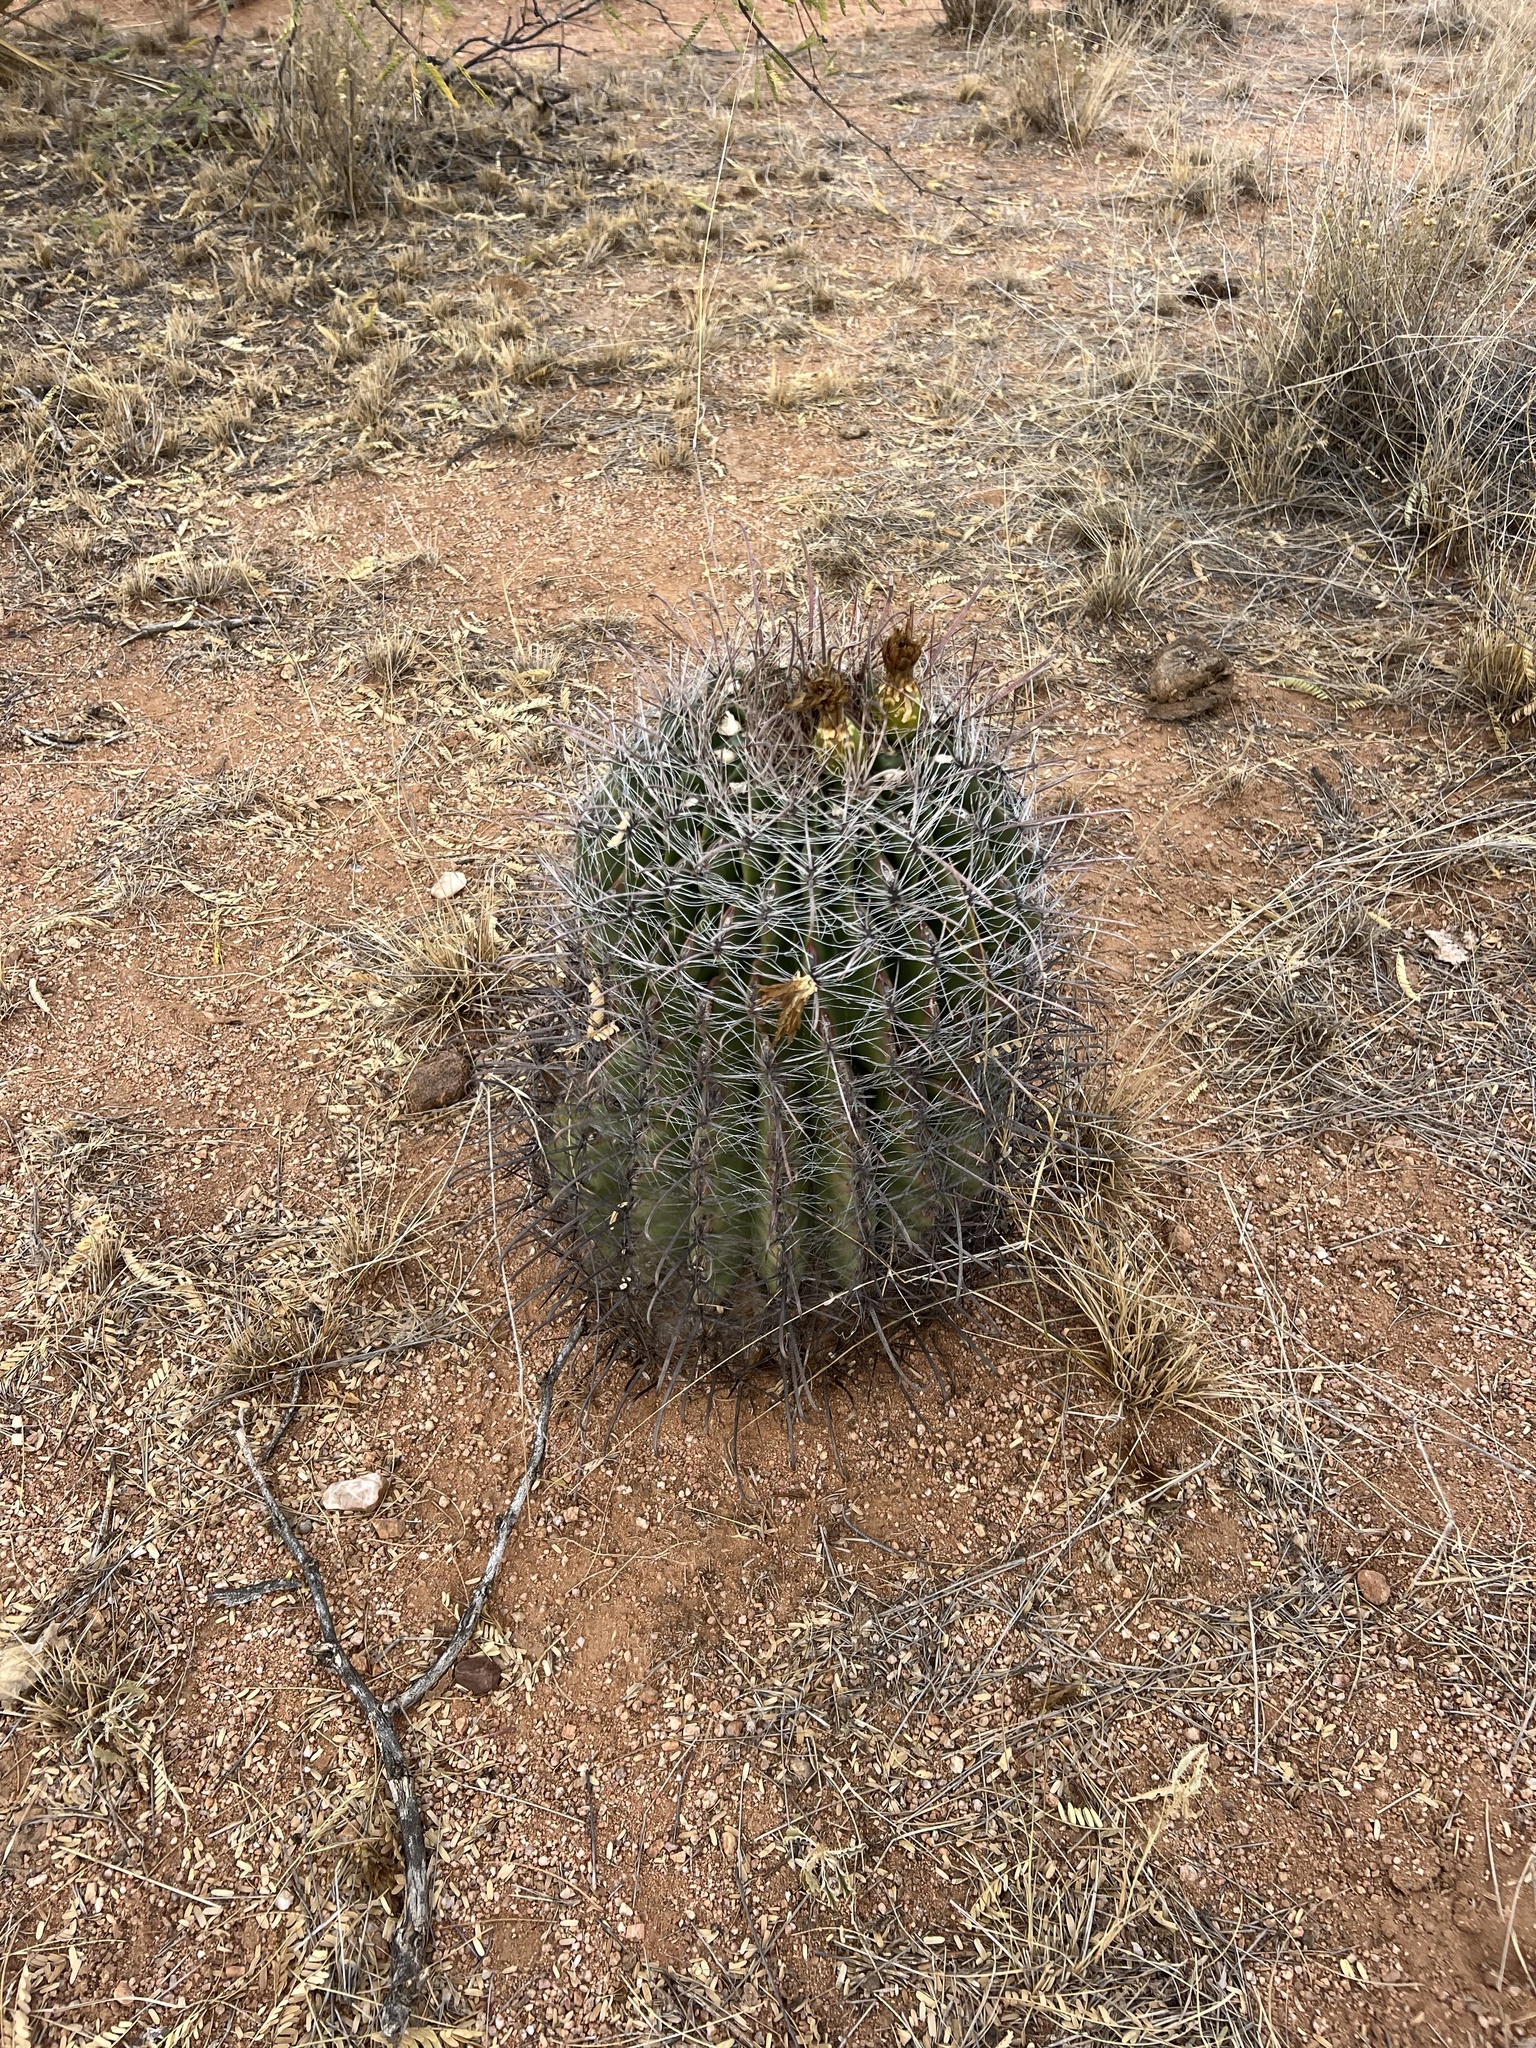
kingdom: Plantae
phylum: Tracheophyta
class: Magnoliopsida
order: Caryophyllales
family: Cactaceae
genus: Ferocactus
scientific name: Ferocactus wislizeni
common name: Candy barrel cactus
